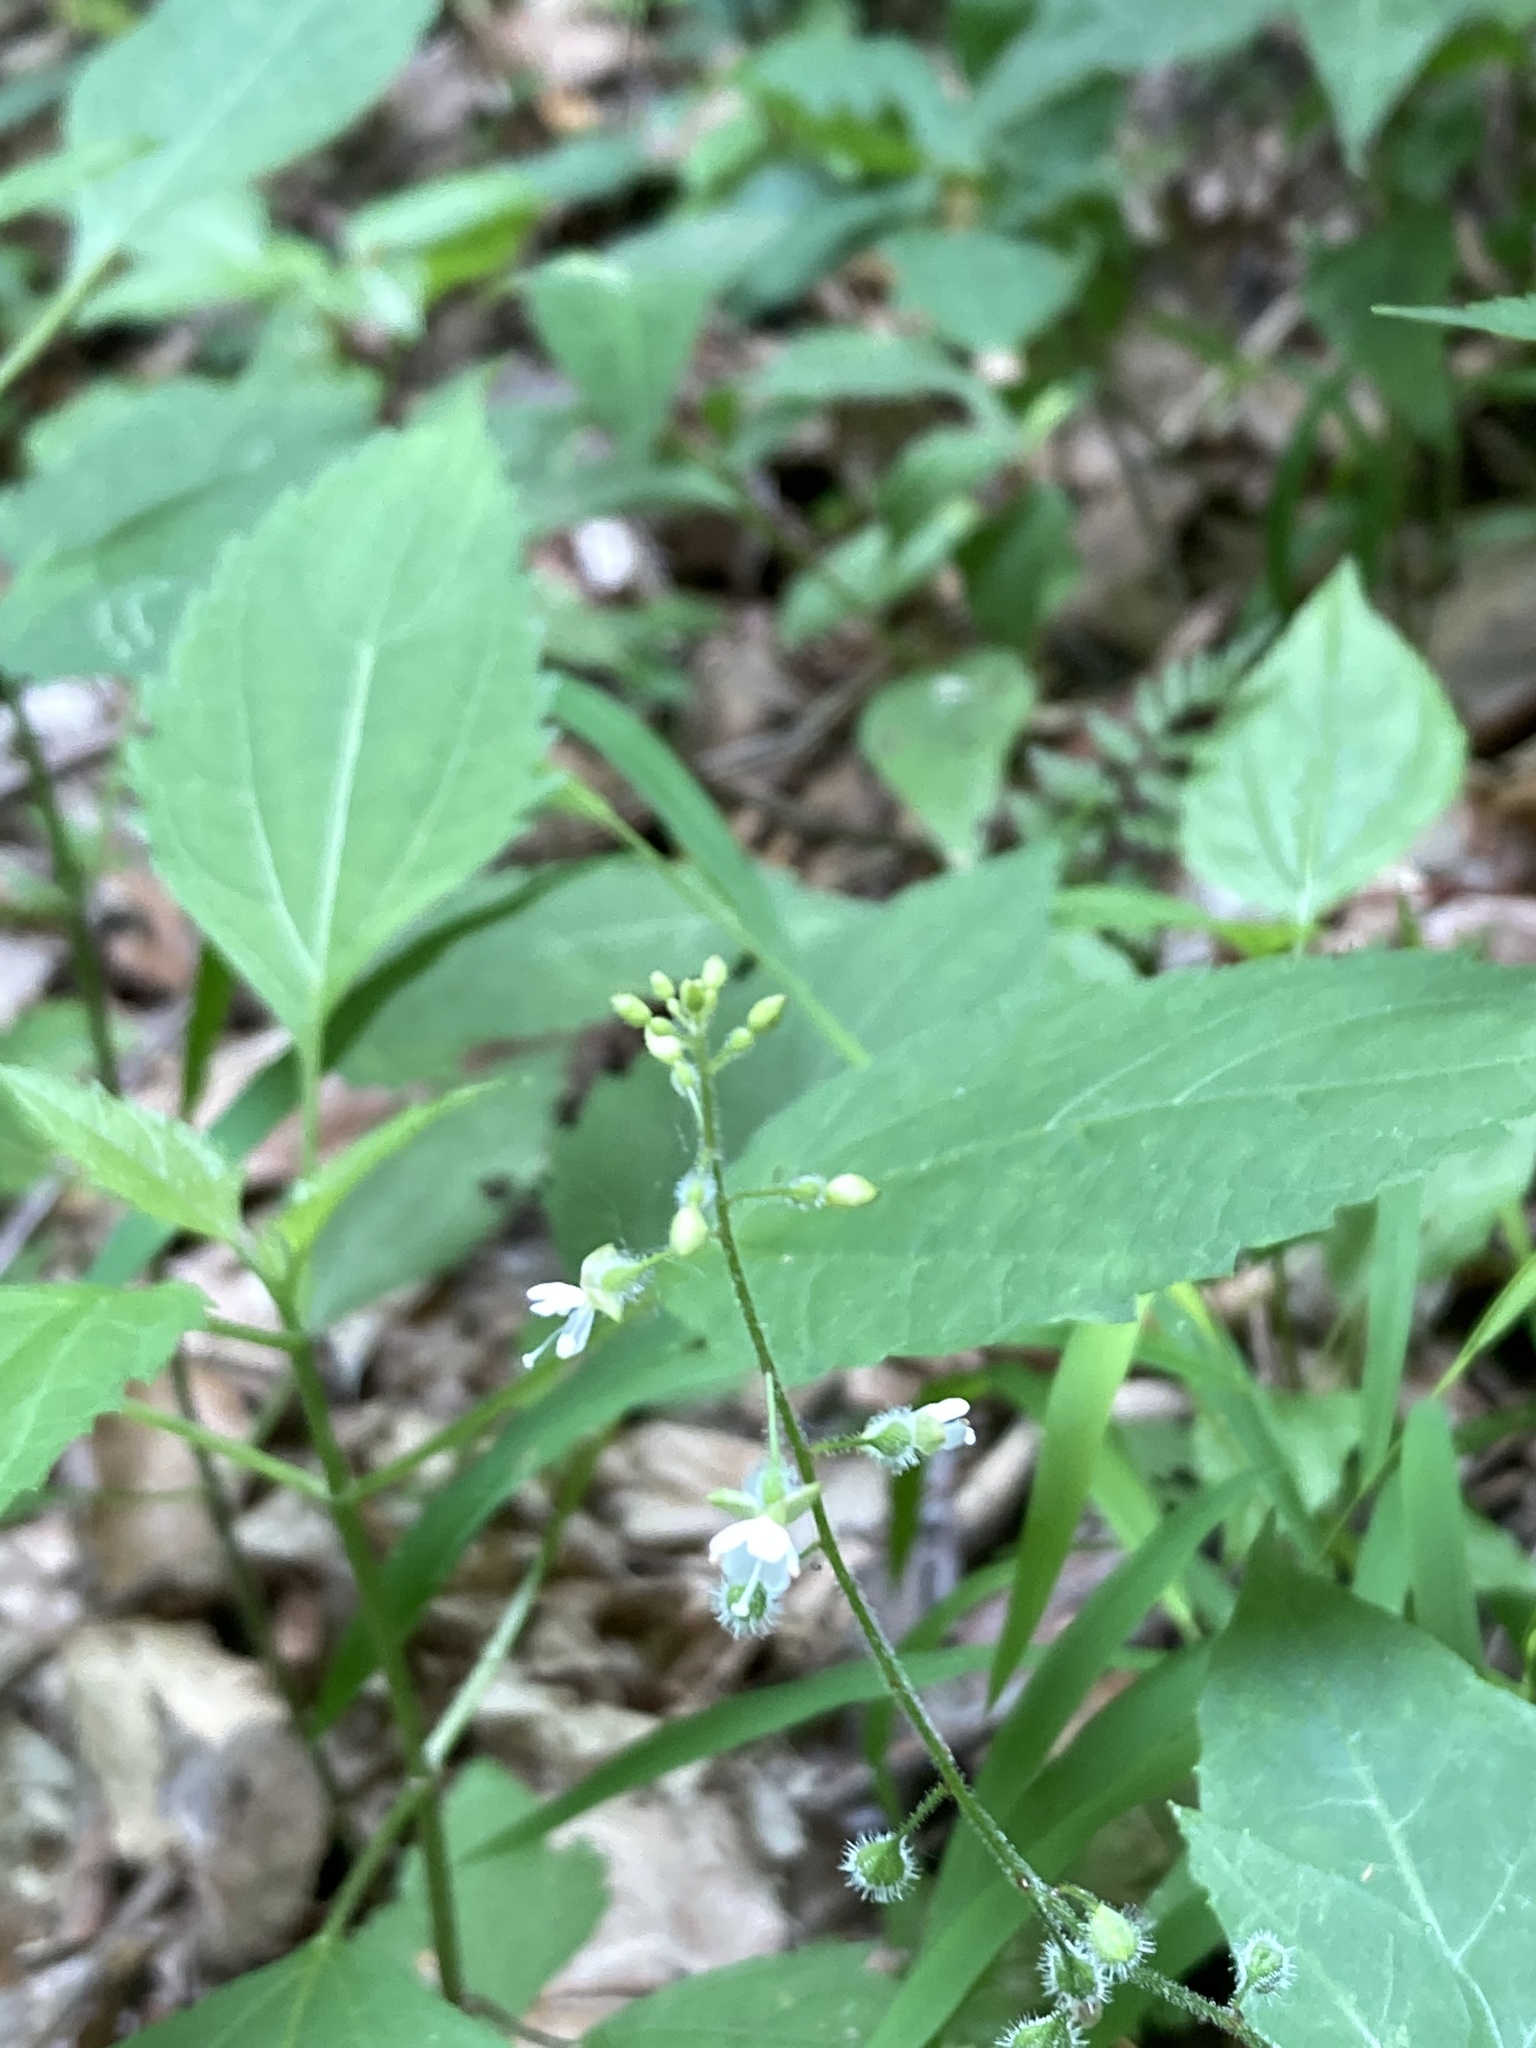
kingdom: Plantae
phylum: Tracheophyta
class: Magnoliopsida
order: Myrtales
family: Onagraceae
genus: Circaea
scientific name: Circaea canadensis
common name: Broad-leaved enchanter's nightshade
